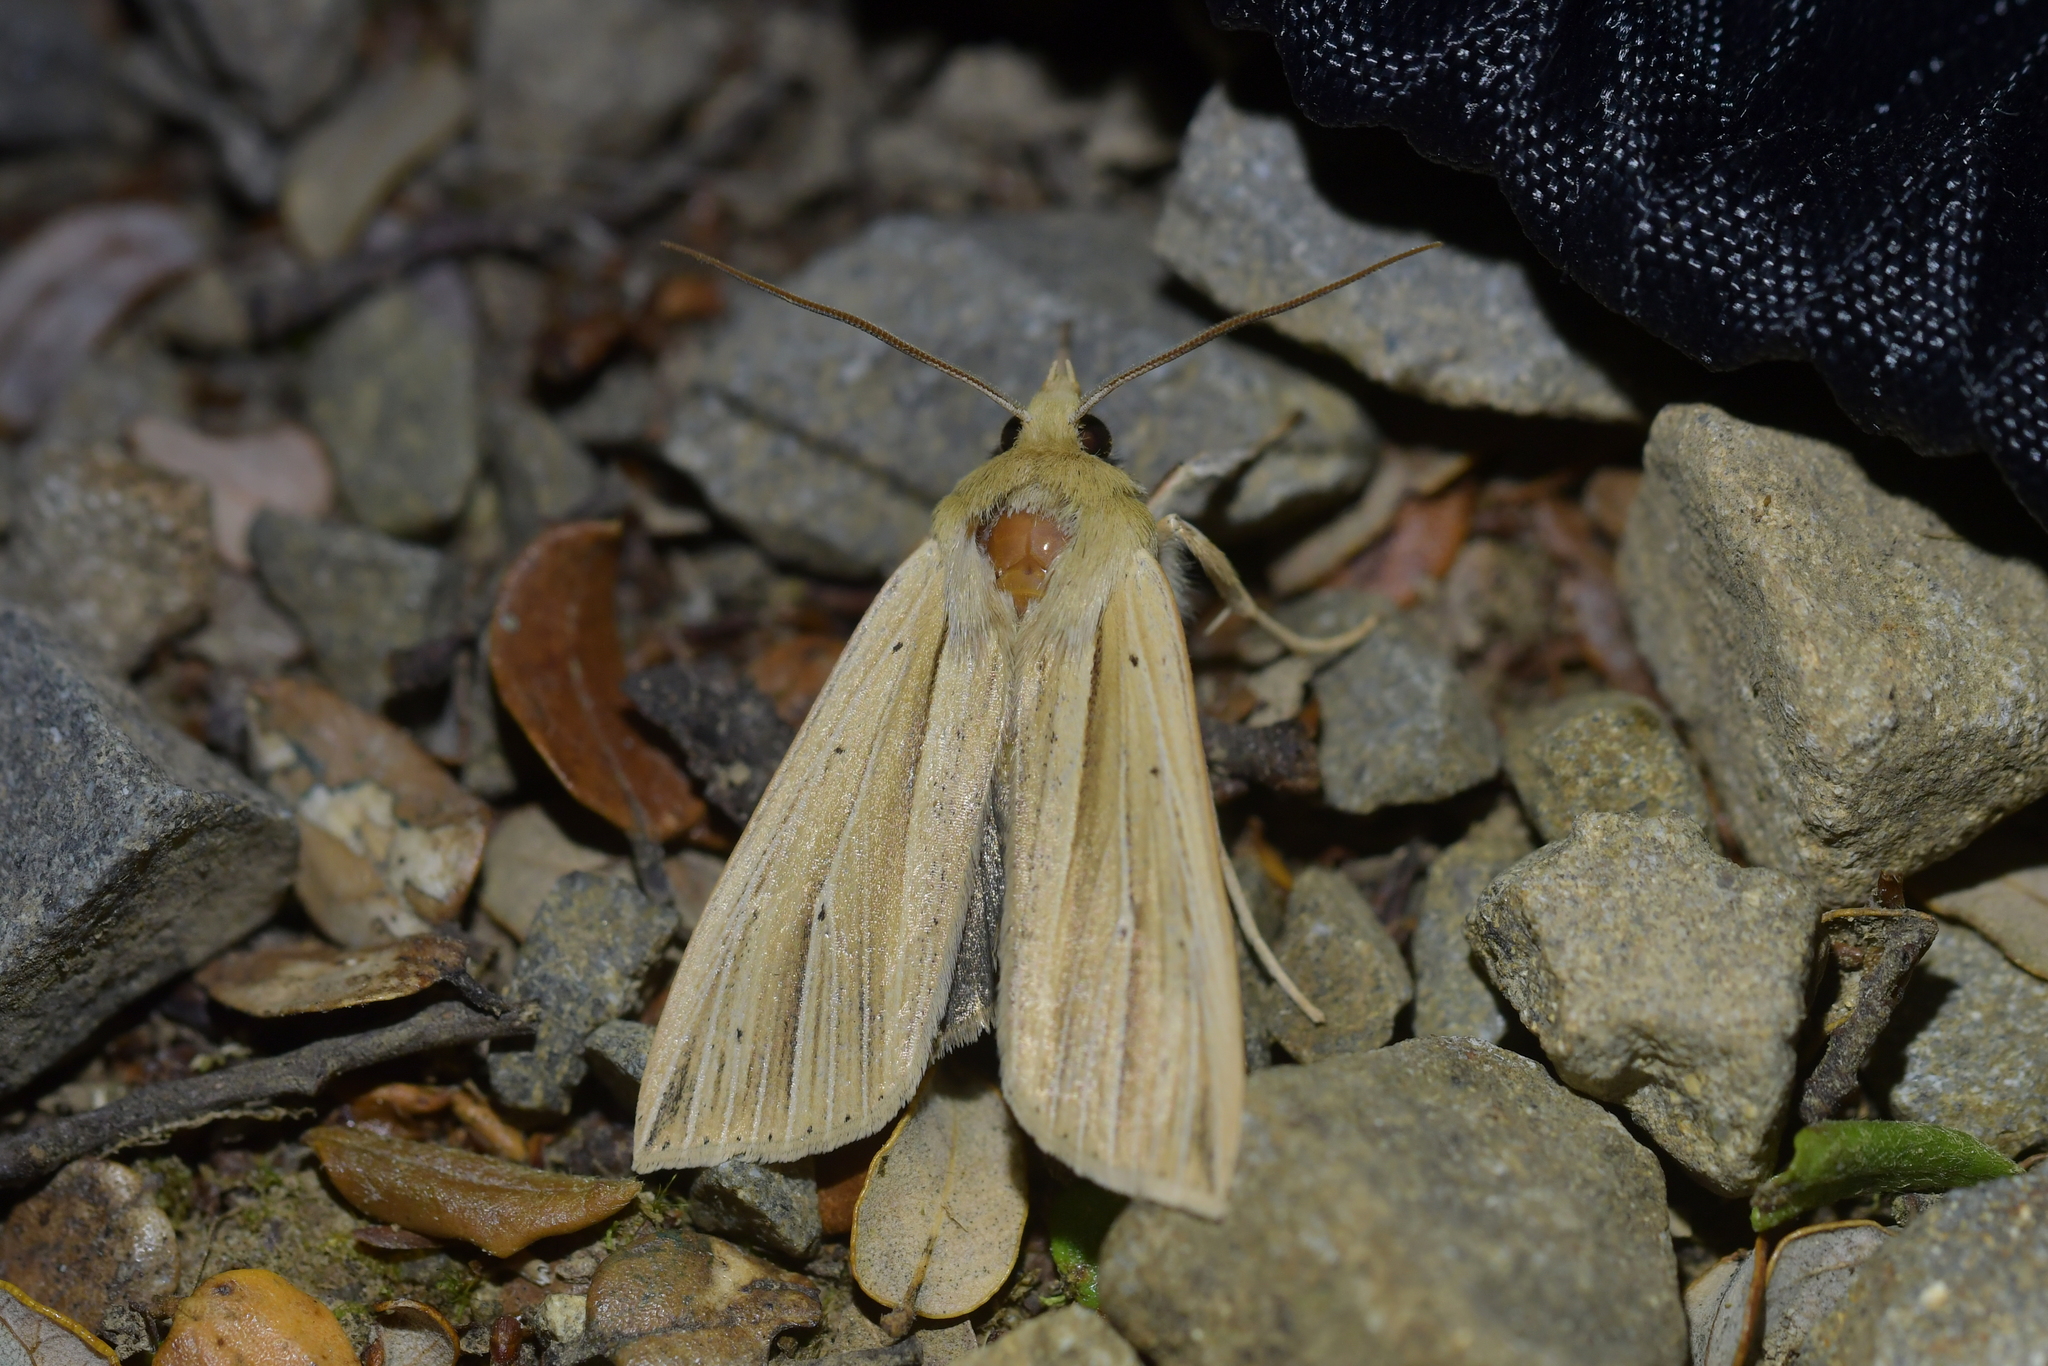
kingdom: Animalia
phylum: Arthropoda
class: Insecta
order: Lepidoptera
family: Noctuidae
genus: Ichneutica
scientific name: Ichneutica sulcana
